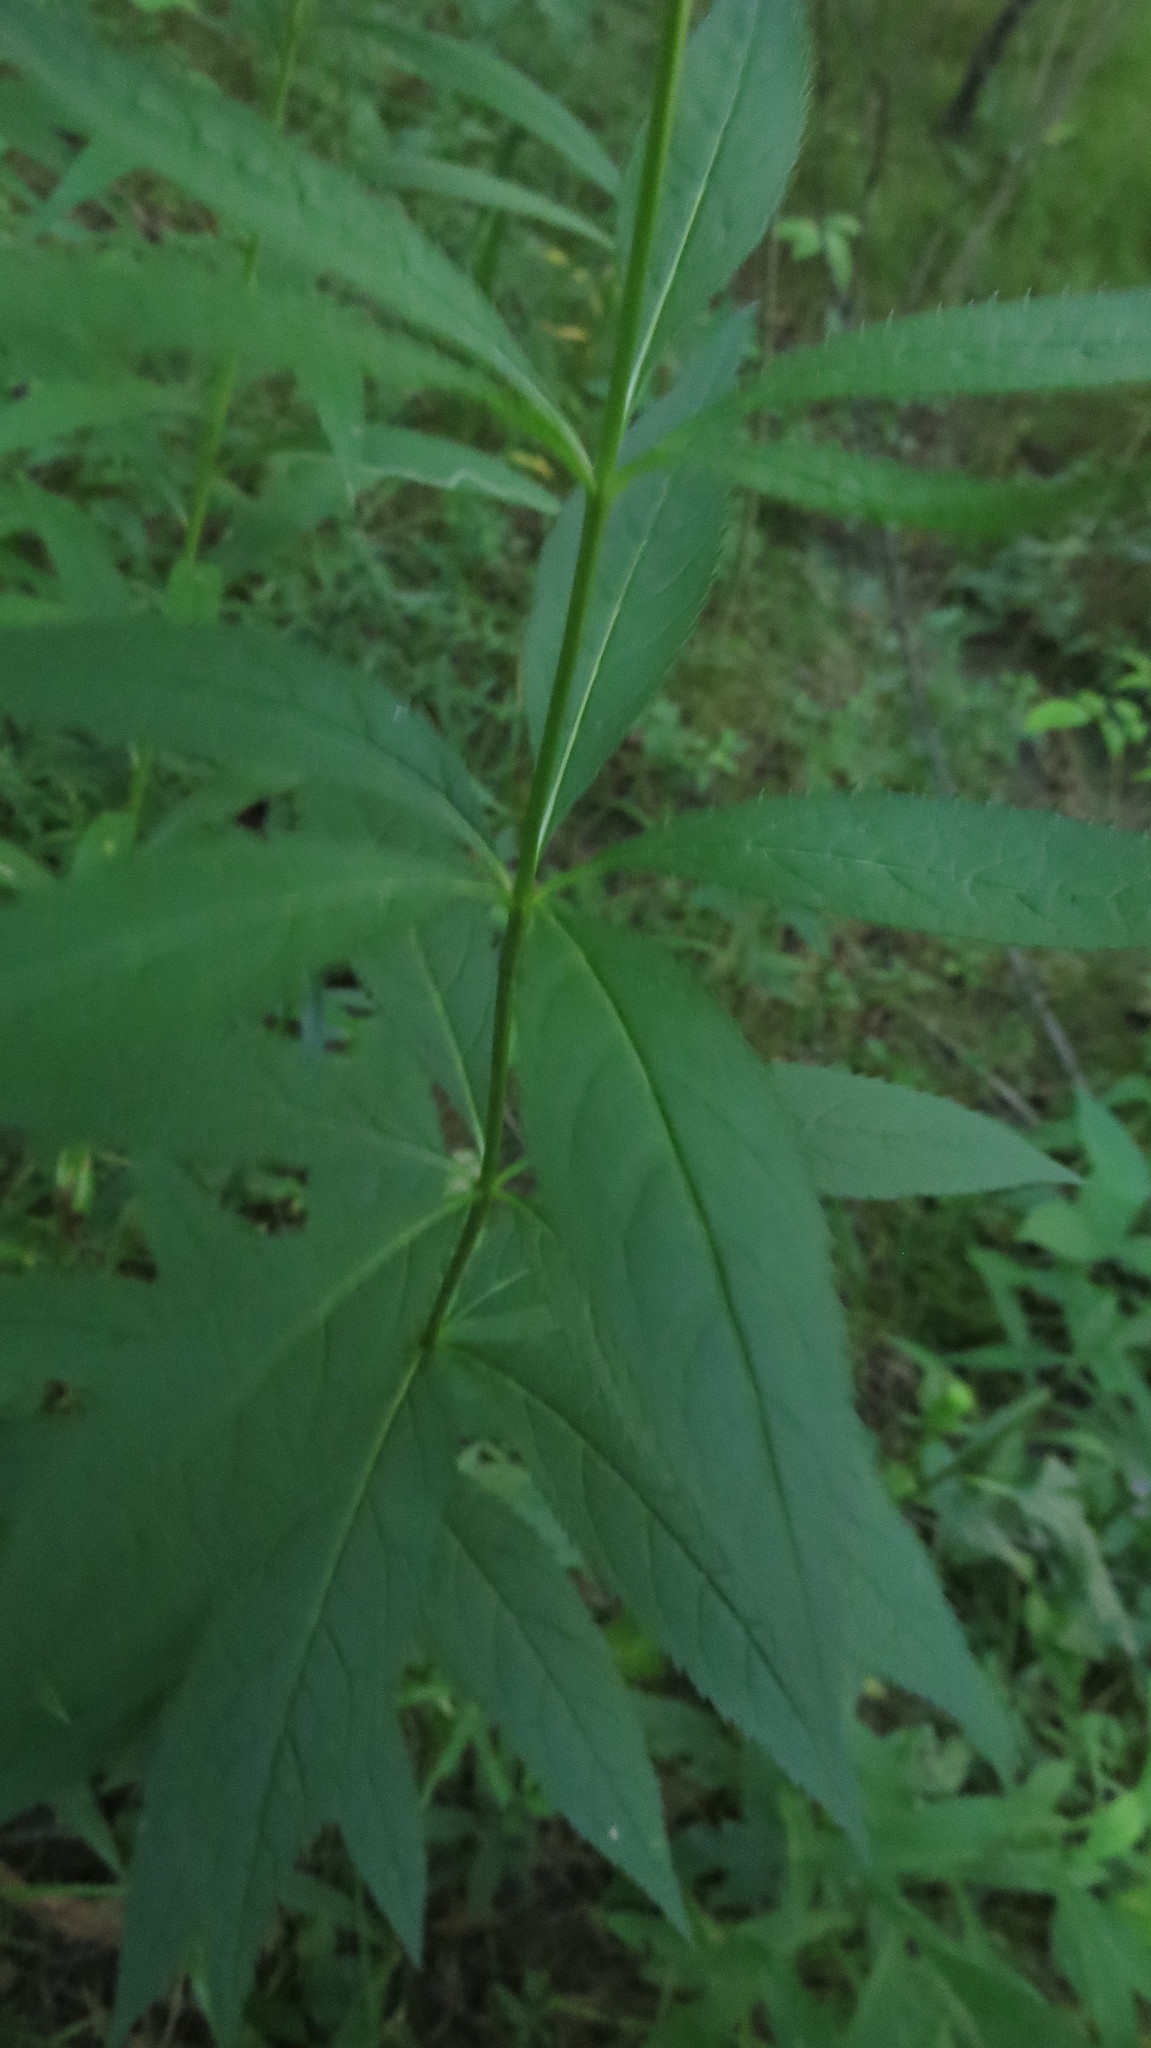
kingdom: Plantae
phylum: Tracheophyta
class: Magnoliopsida
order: Lamiales
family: Plantaginaceae
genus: Veronicastrum
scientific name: Veronicastrum virginicum
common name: Blackroot
